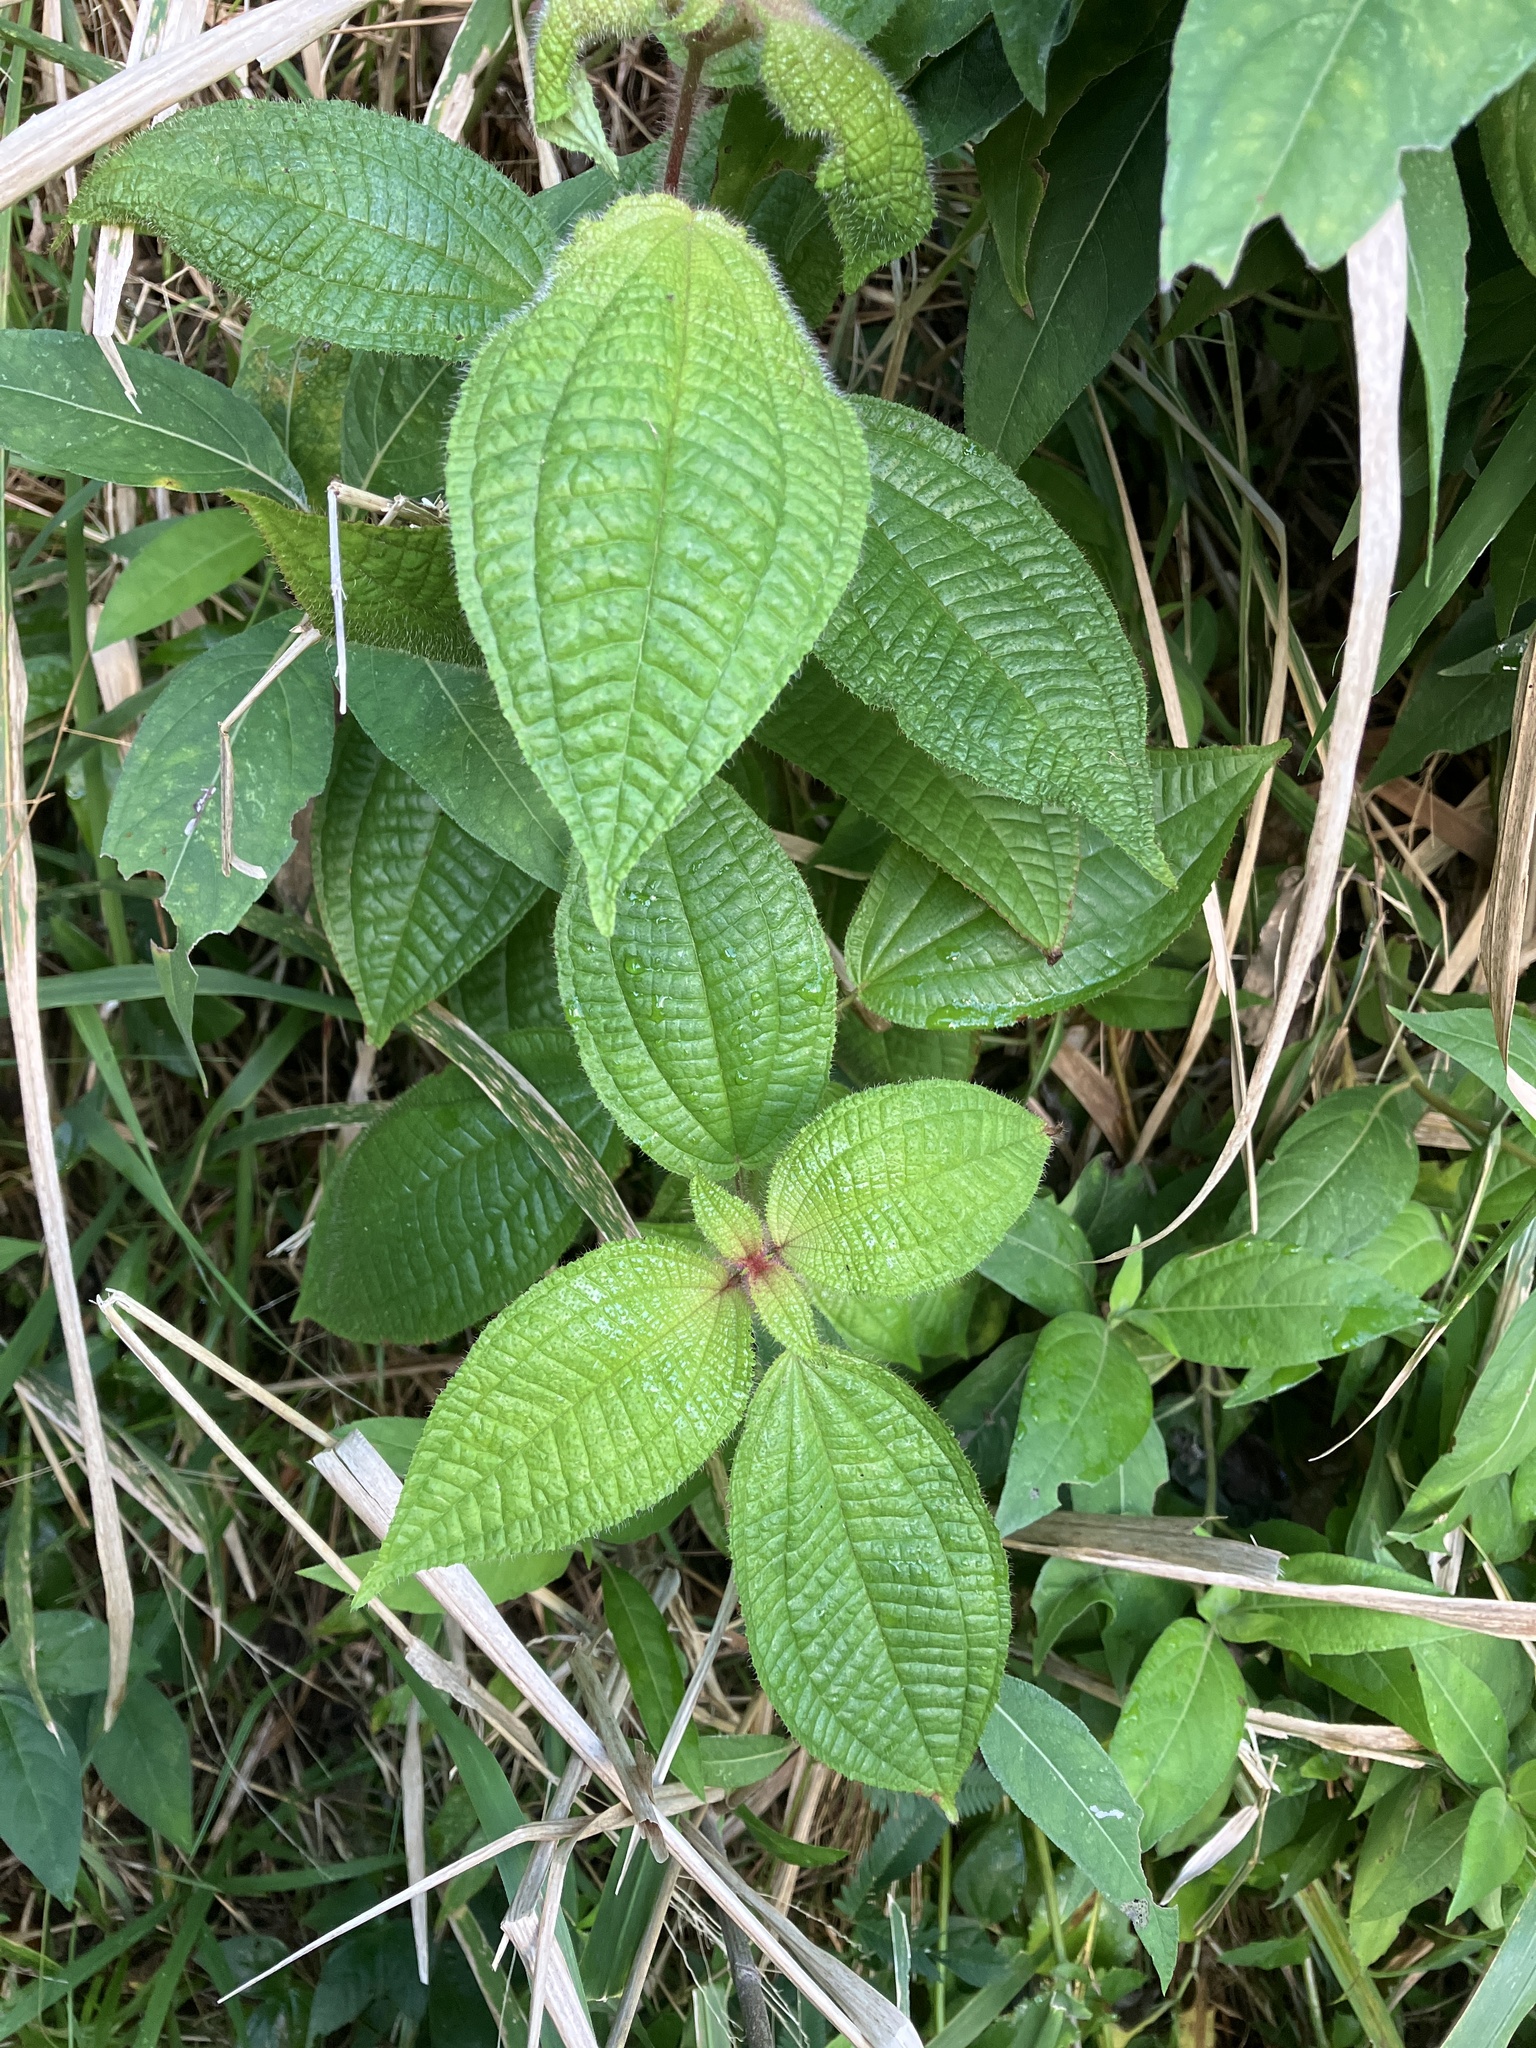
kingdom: Plantae
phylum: Tracheophyta
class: Magnoliopsida
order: Myrtales
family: Melastomataceae
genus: Miconia
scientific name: Miconia crenata
